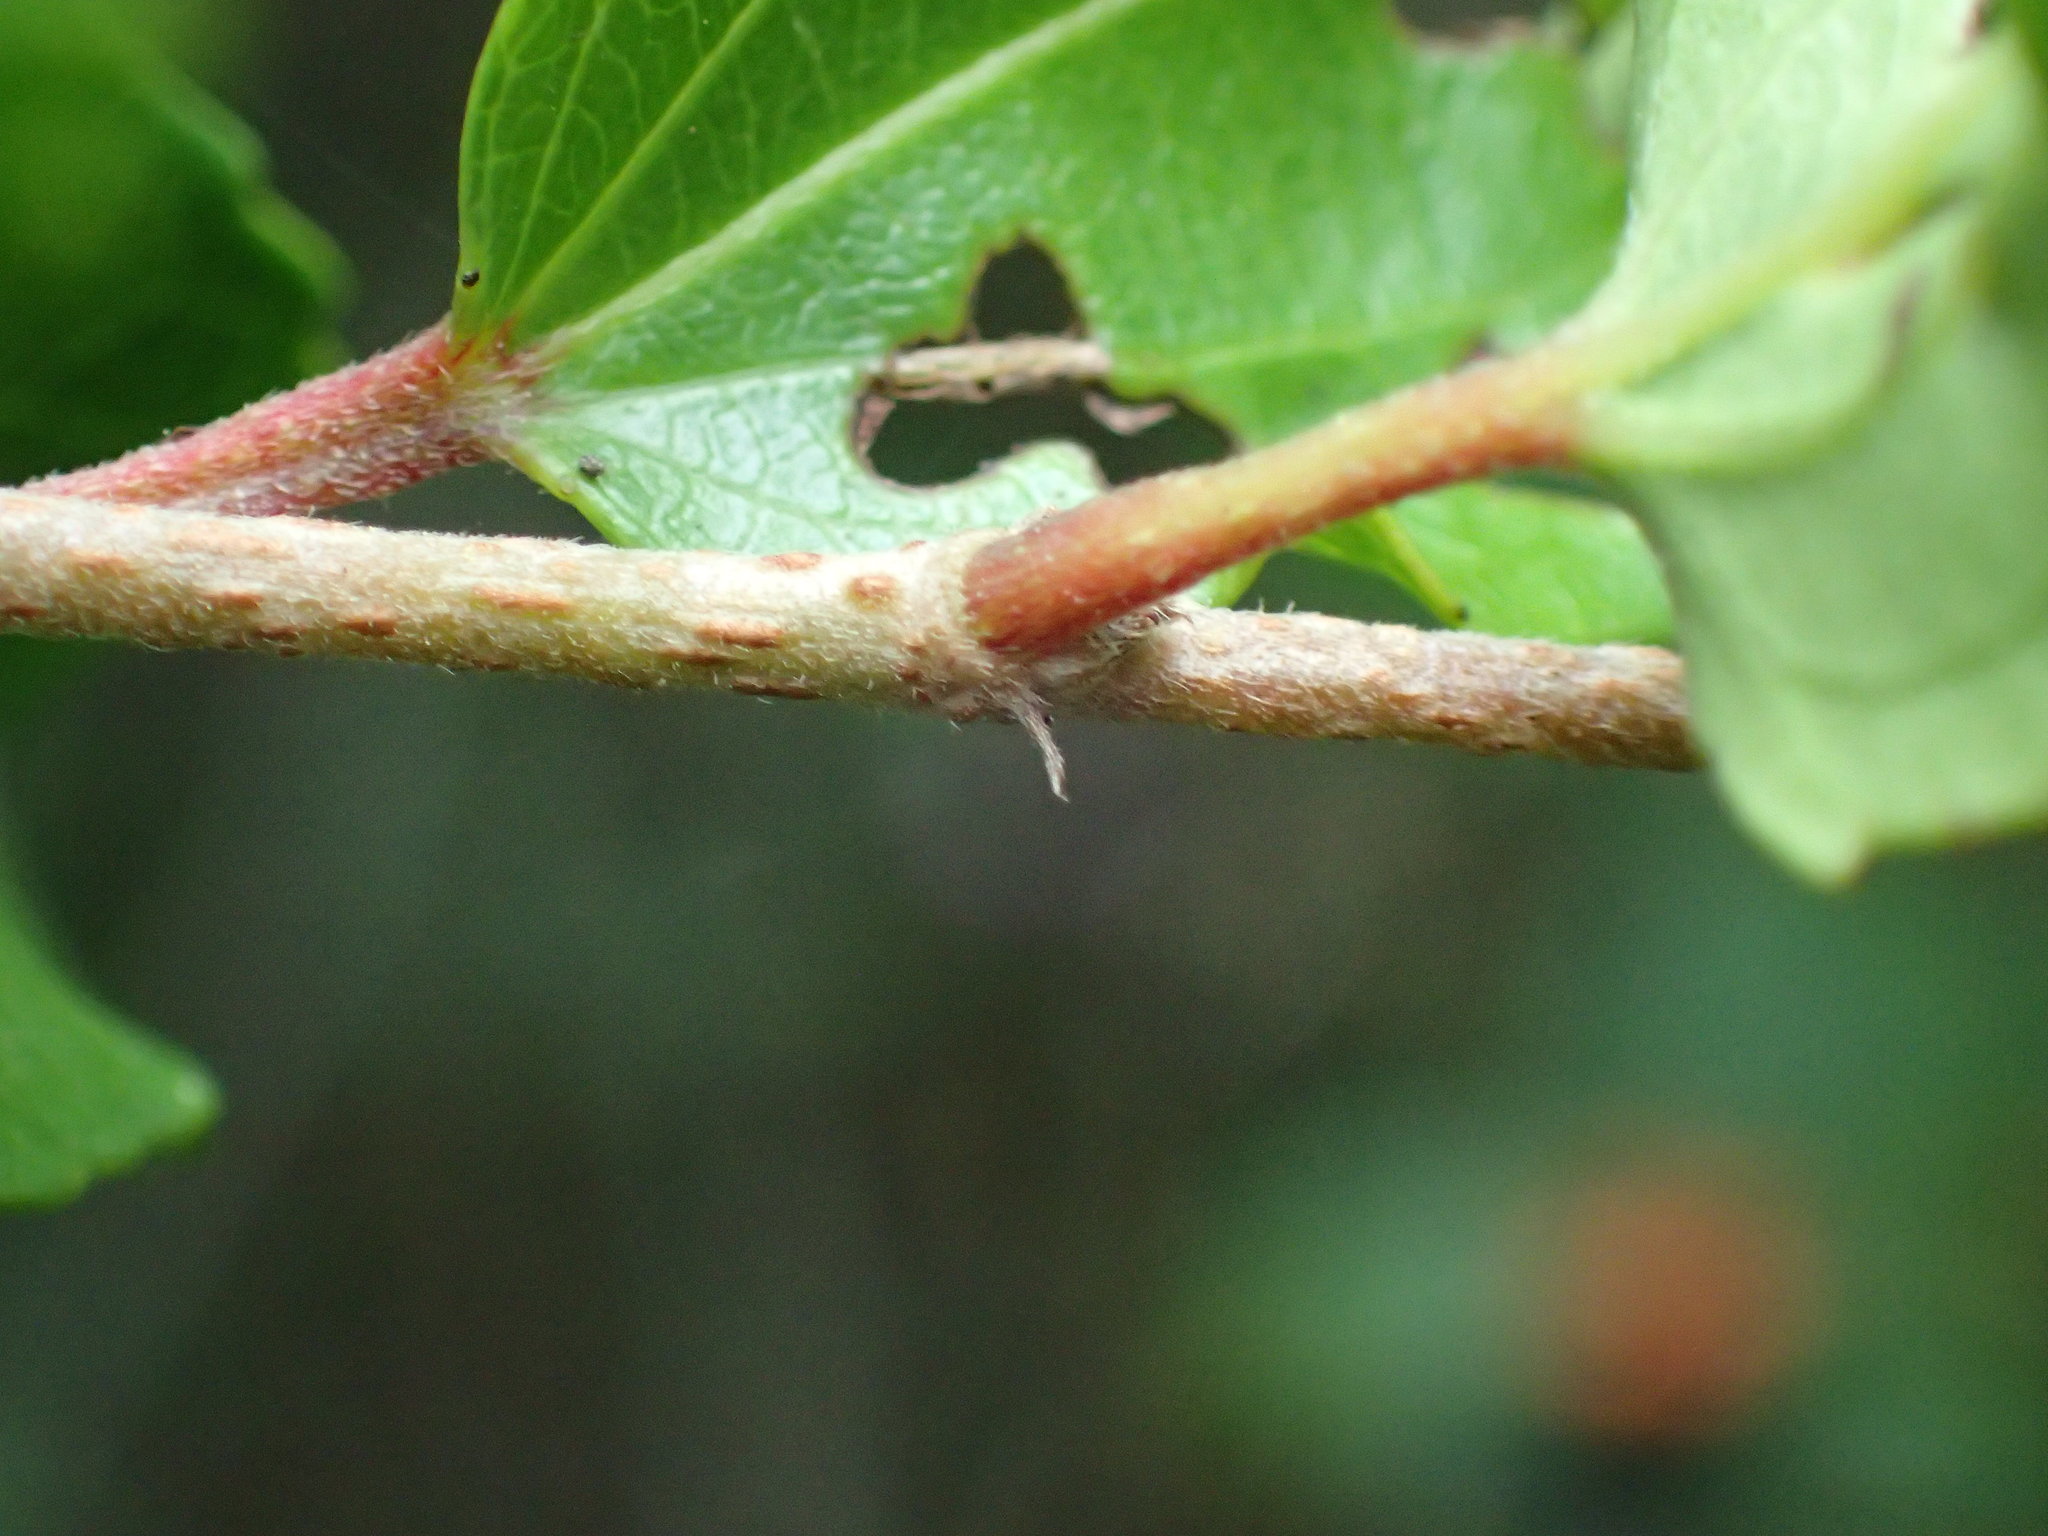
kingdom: Plantae
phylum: Tracheophyta
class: Magnoliopsida
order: Malpighiales
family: Salicaceae
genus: Trimeria
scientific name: Trimeria trinervis
